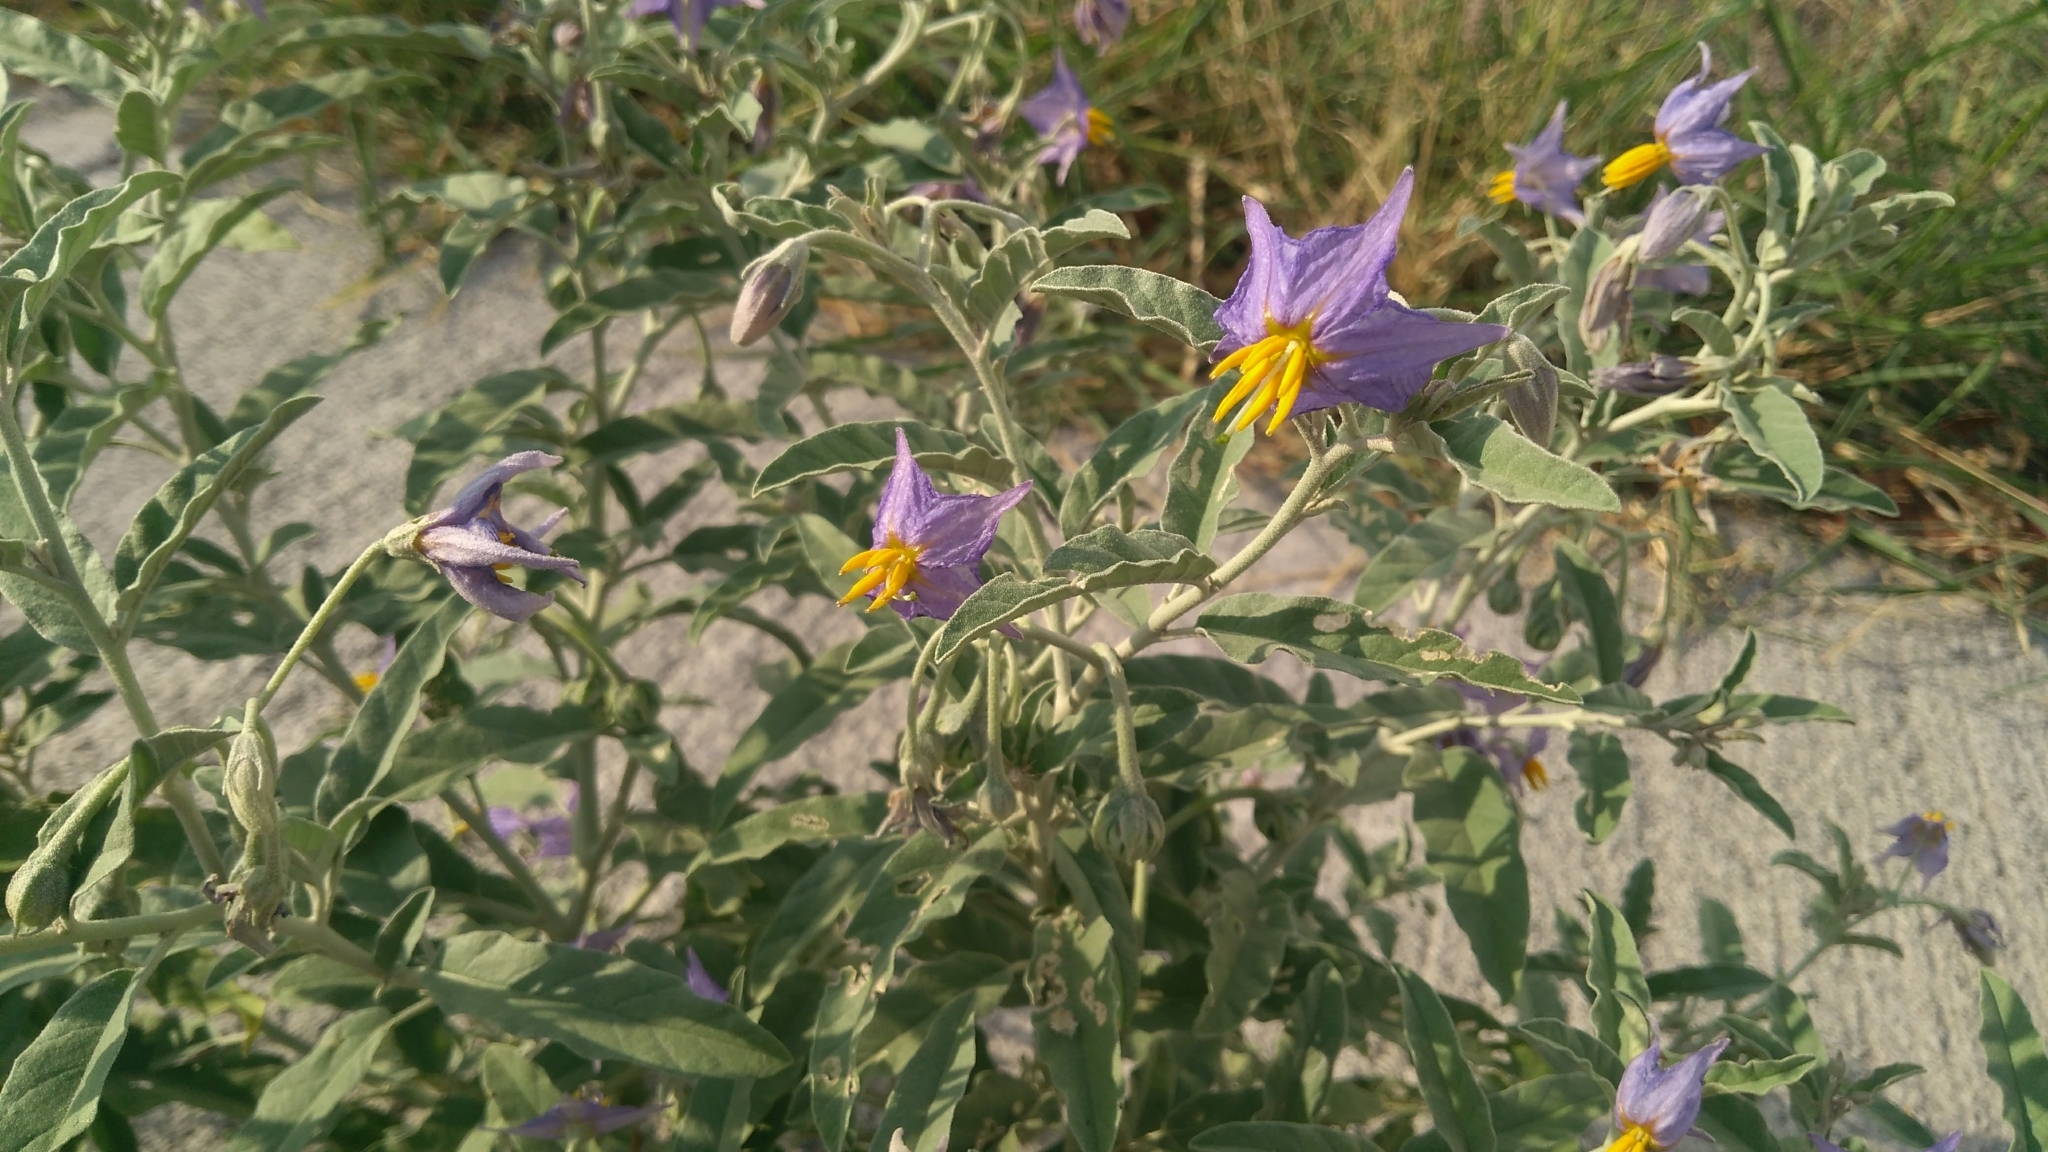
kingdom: Plantae
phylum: Tracheophyta
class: Magnoliopsida
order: Solanales
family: Solanaceae
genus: Solanum
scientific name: Solanum elaeagnifolium
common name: Silverleaf nightshade
